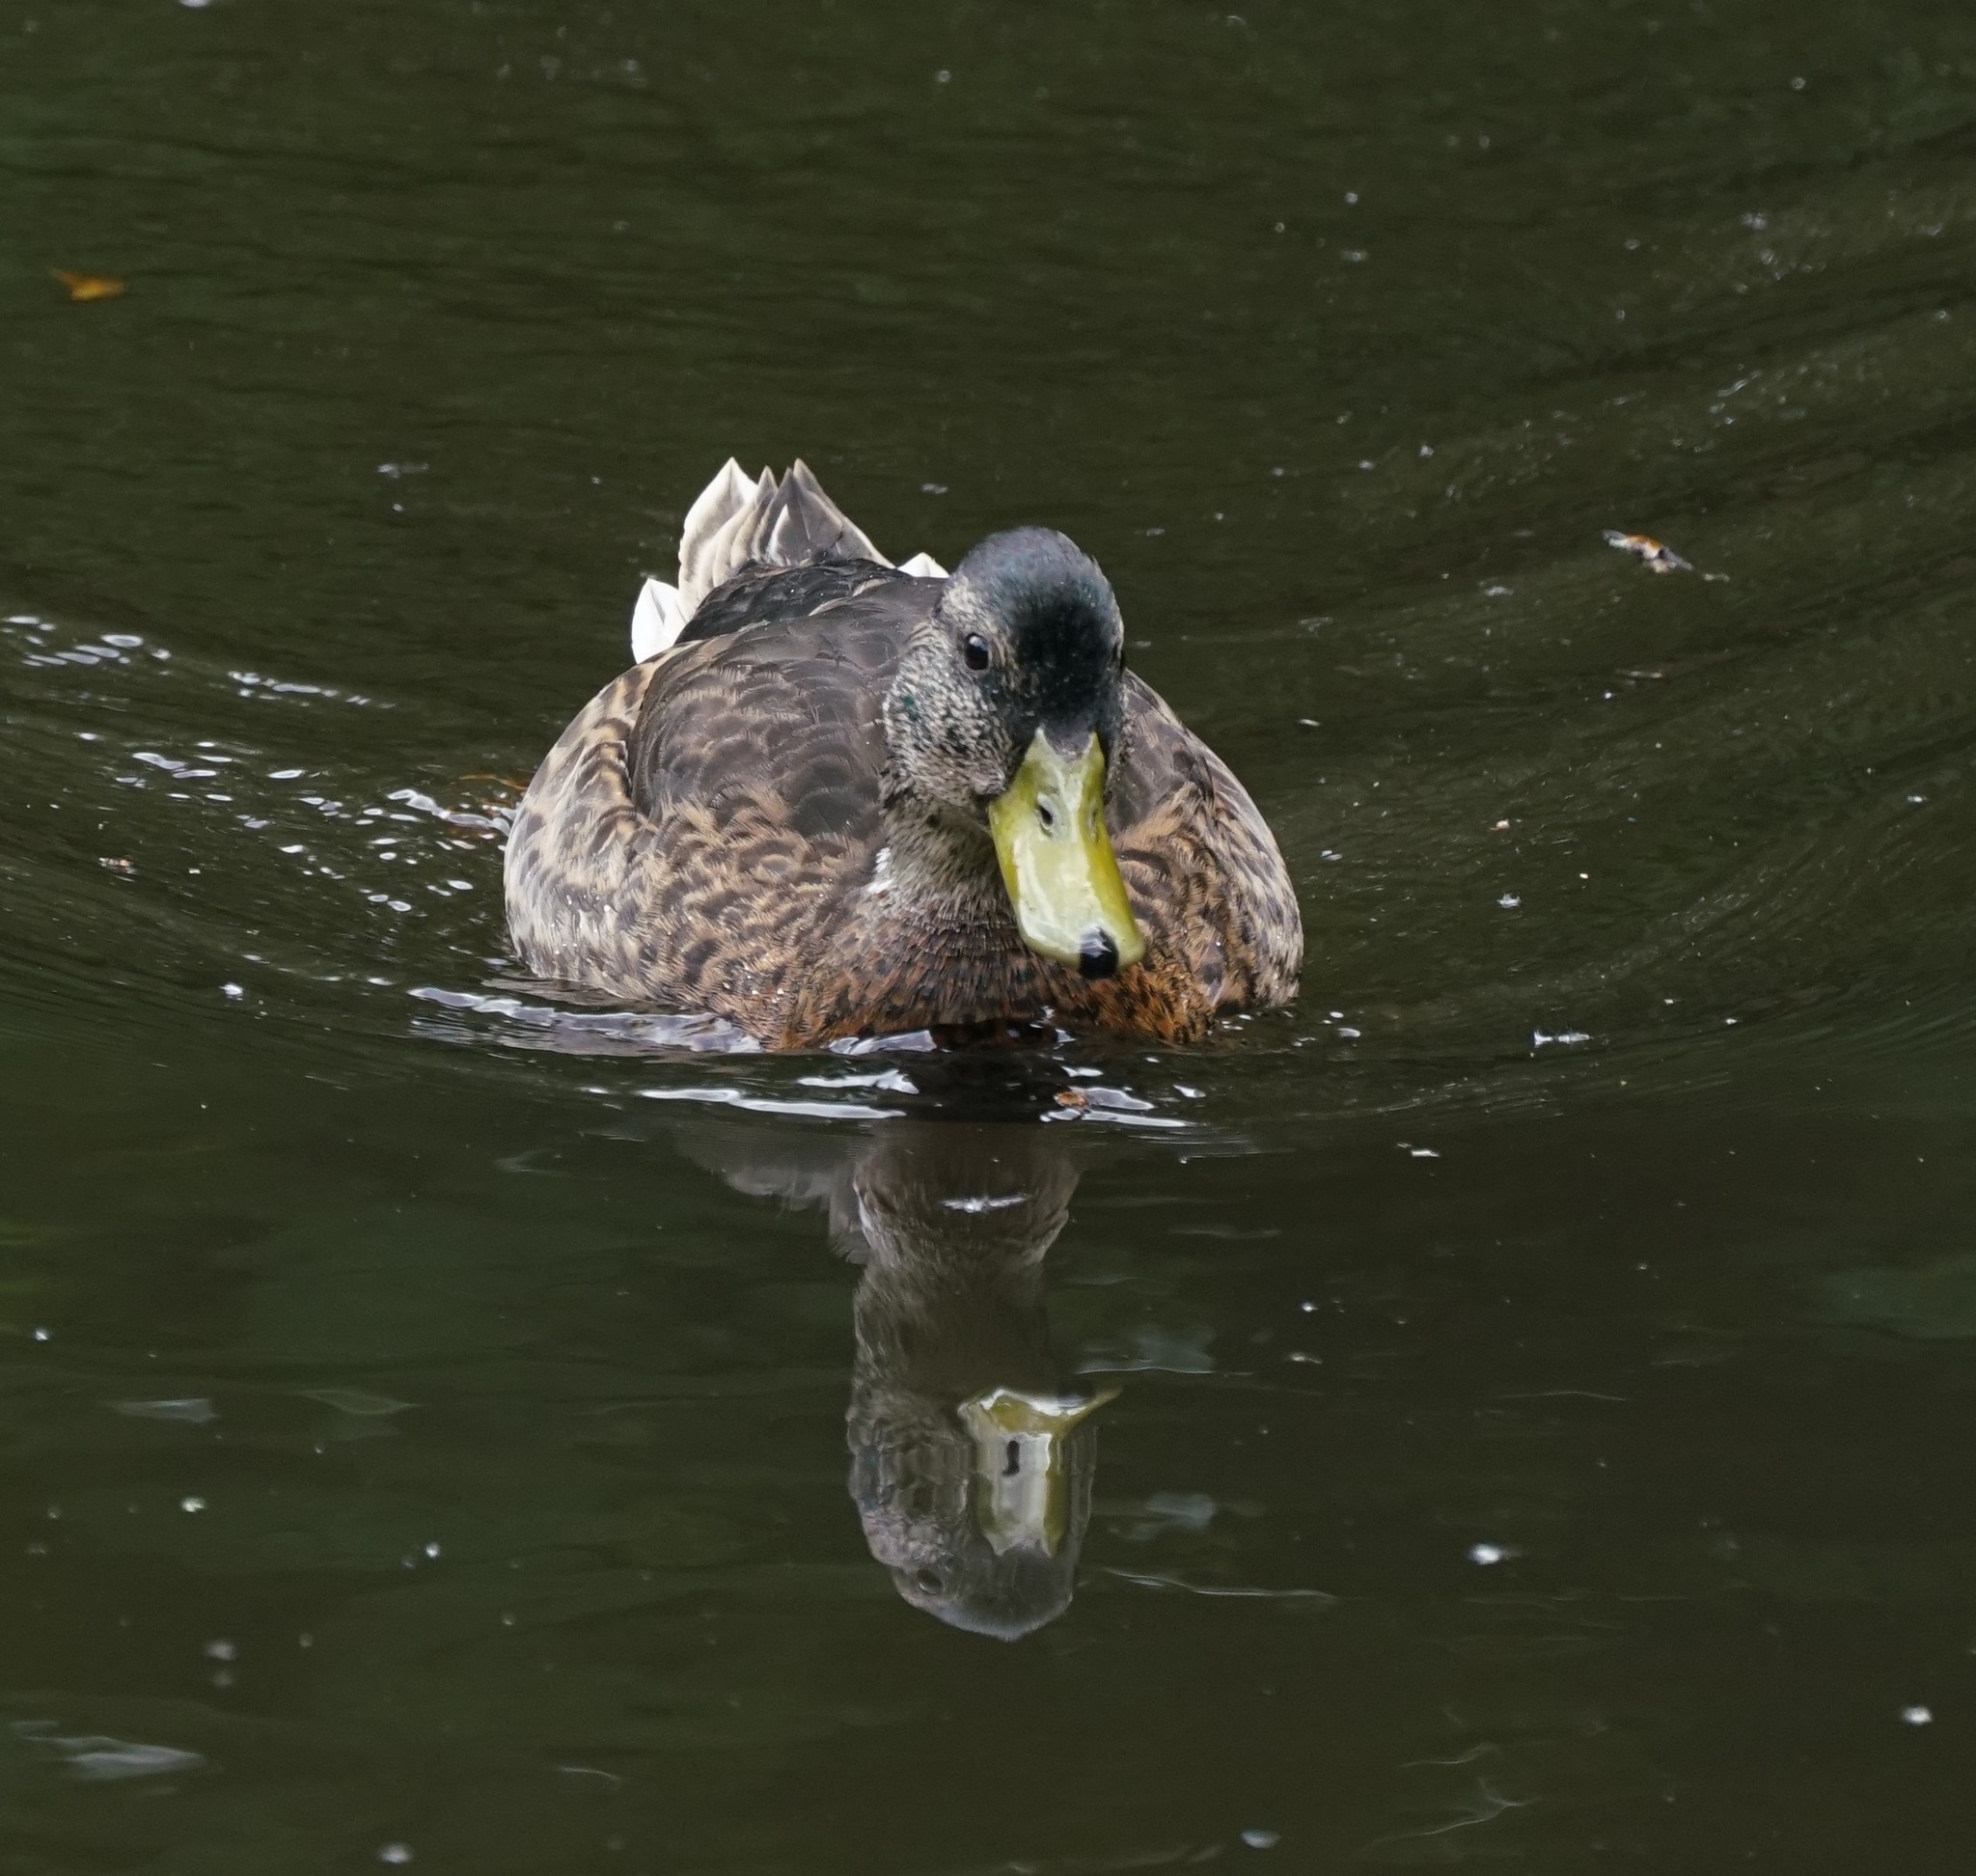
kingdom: Animalia
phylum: Chordata
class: Aves
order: Anseriformes
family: Anatidae
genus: Anas
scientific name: Anas platyrhynchos
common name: Mallard
